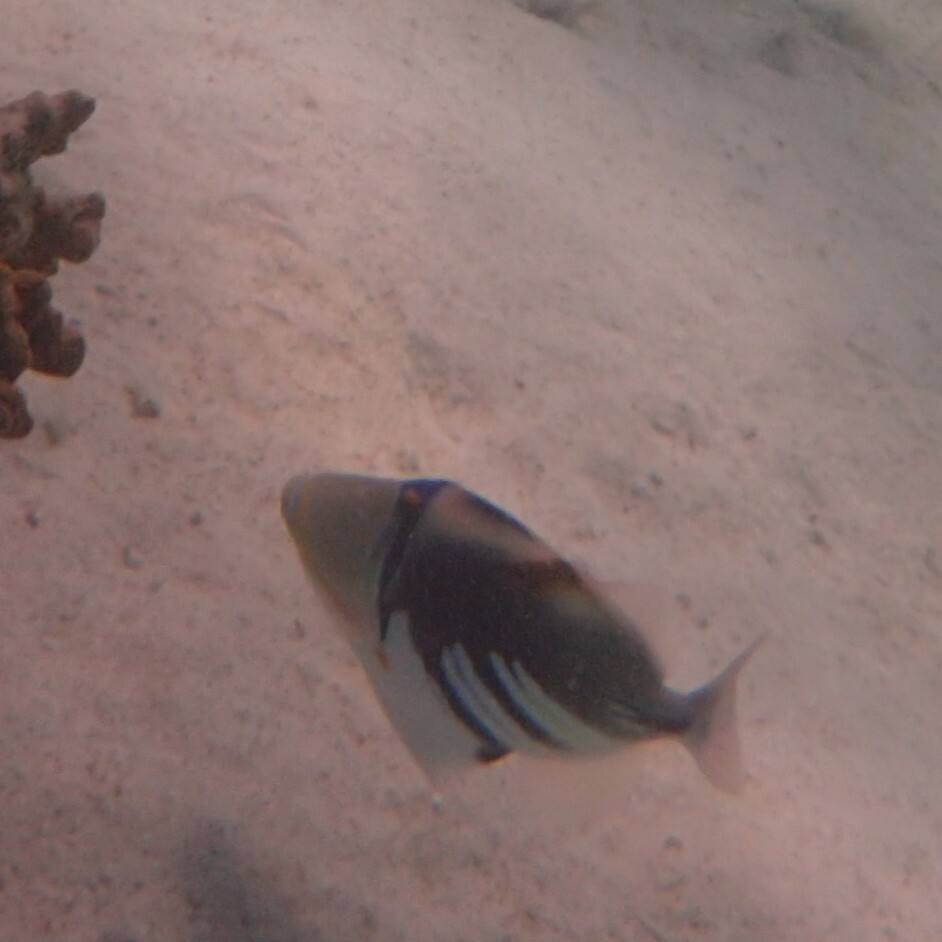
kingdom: Animalia
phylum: Chordata
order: Tetraodontiformes
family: Balistidae
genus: Rhinecanthus
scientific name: Rhinecanthus aculeatus
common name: White-banded triggerfish
